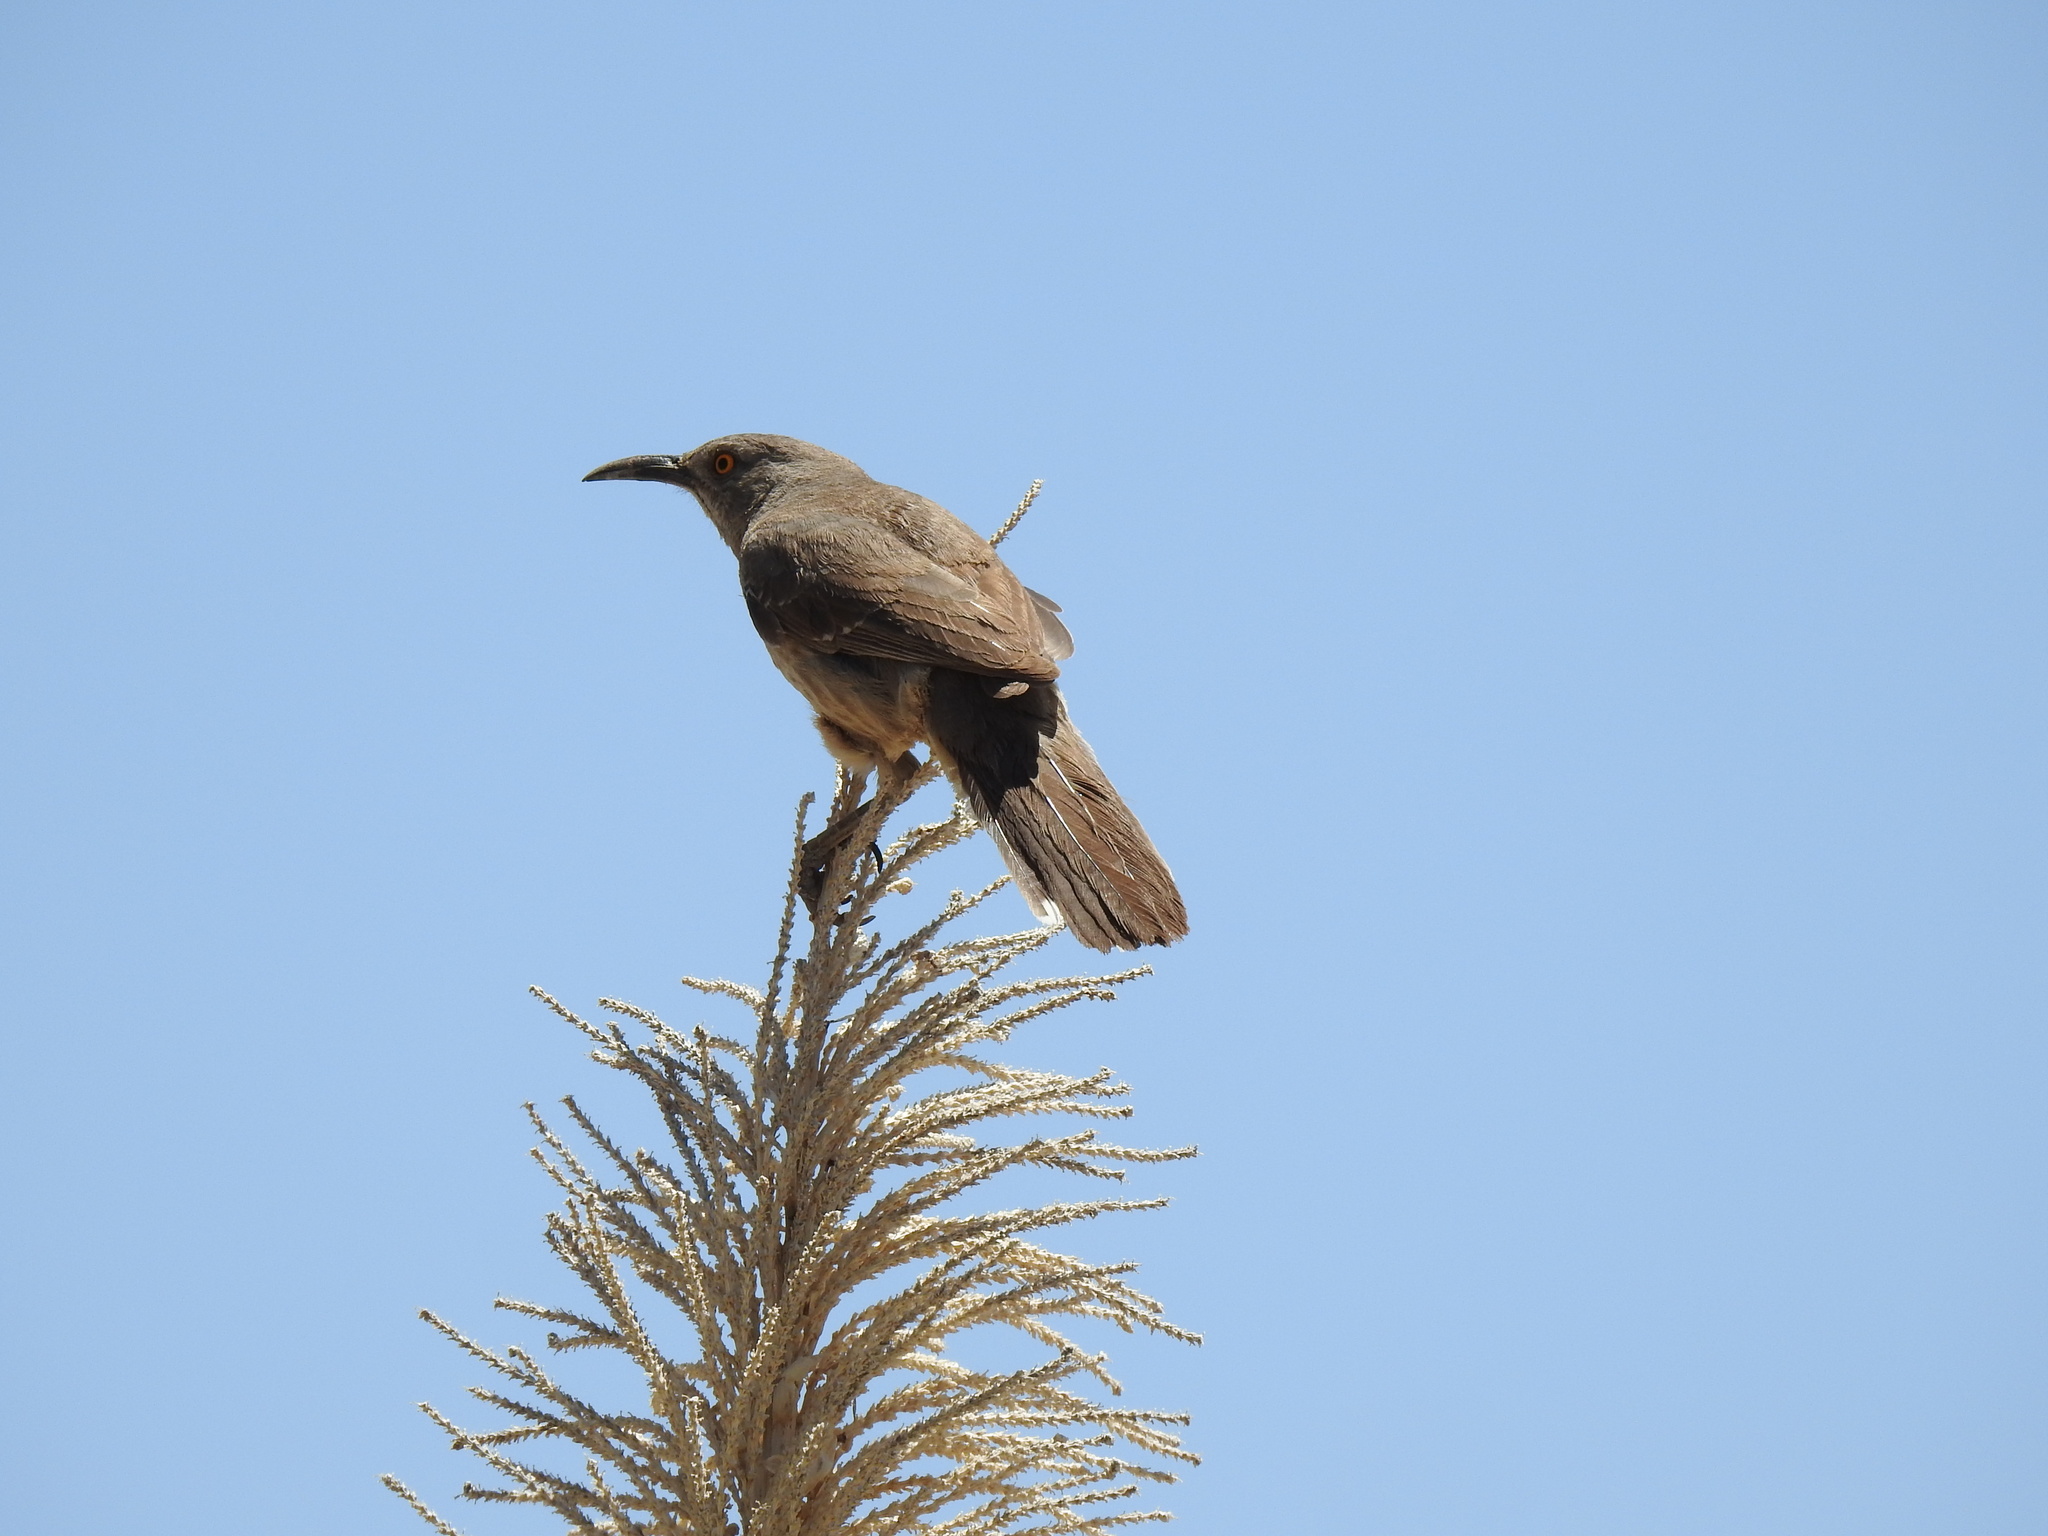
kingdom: Animalia
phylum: Chordata
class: Aves
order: Passeriformes
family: Mimidae
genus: Toxostoma
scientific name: Toxostoma curvirostre
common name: Curve-billed thrasher
